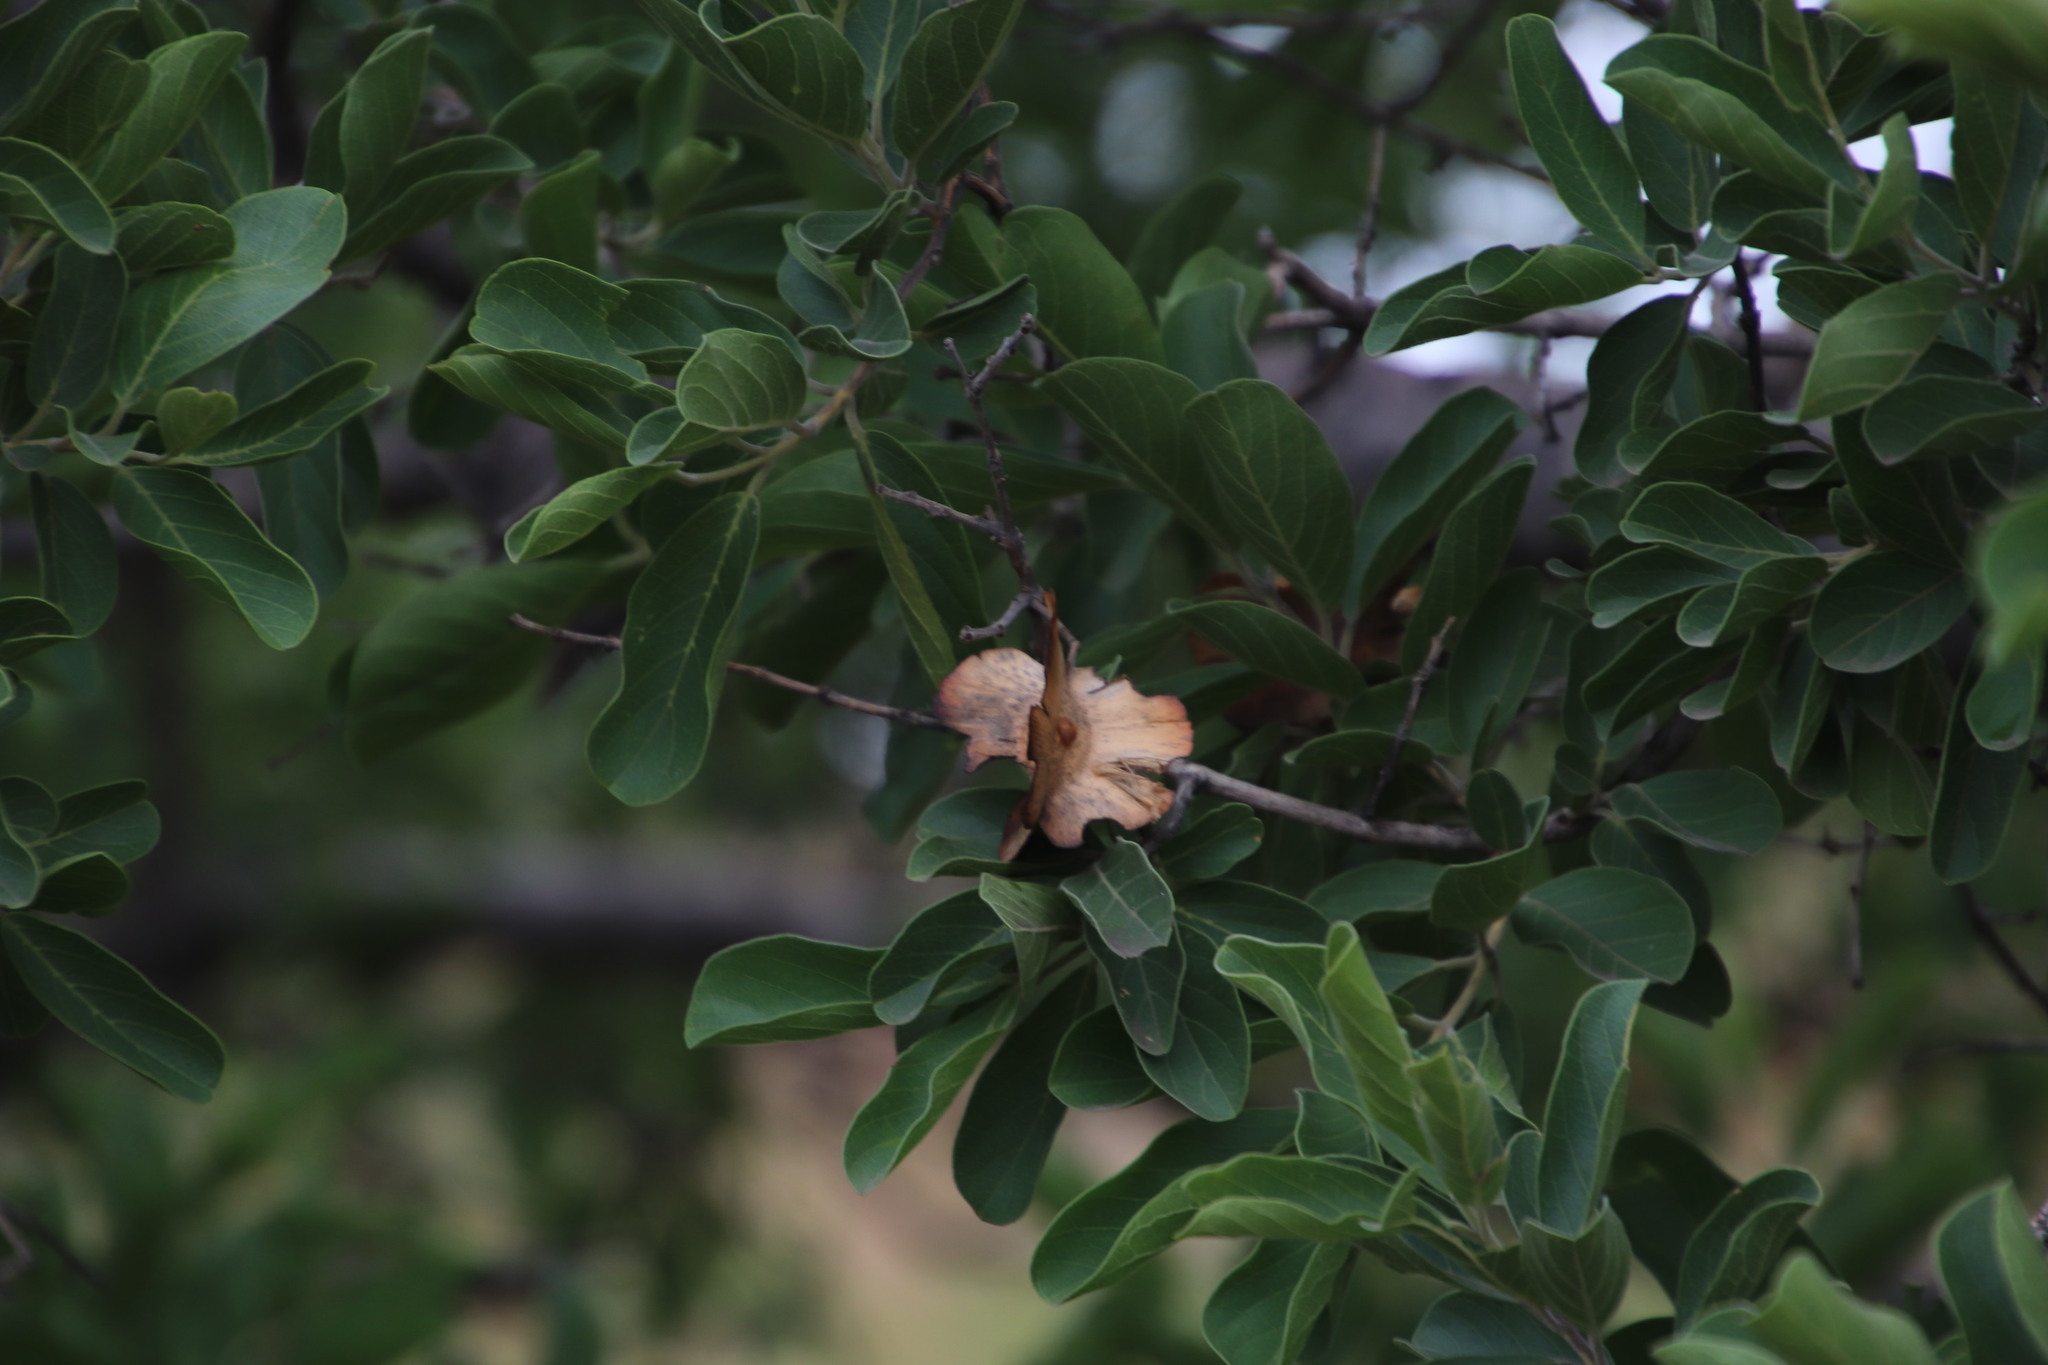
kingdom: Plantae
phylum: Tracheophyta
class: Magnoliopsida
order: Myrtales
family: Combretaceae
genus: Combretum
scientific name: Combretum zeyheri
